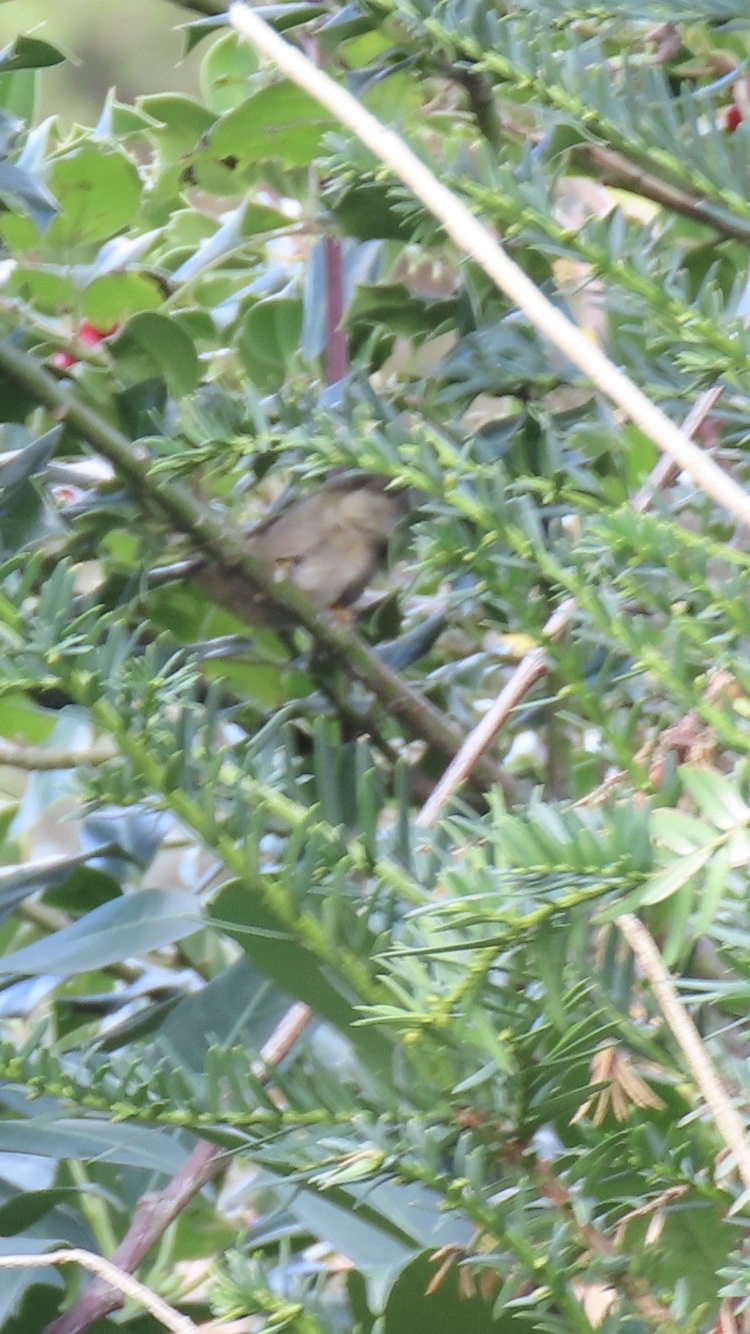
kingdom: Animalia
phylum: Chordata
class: Aves
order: Passeriformes
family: Regulidae
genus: Regulus
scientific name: Regulus regulus
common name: Goldcrest
